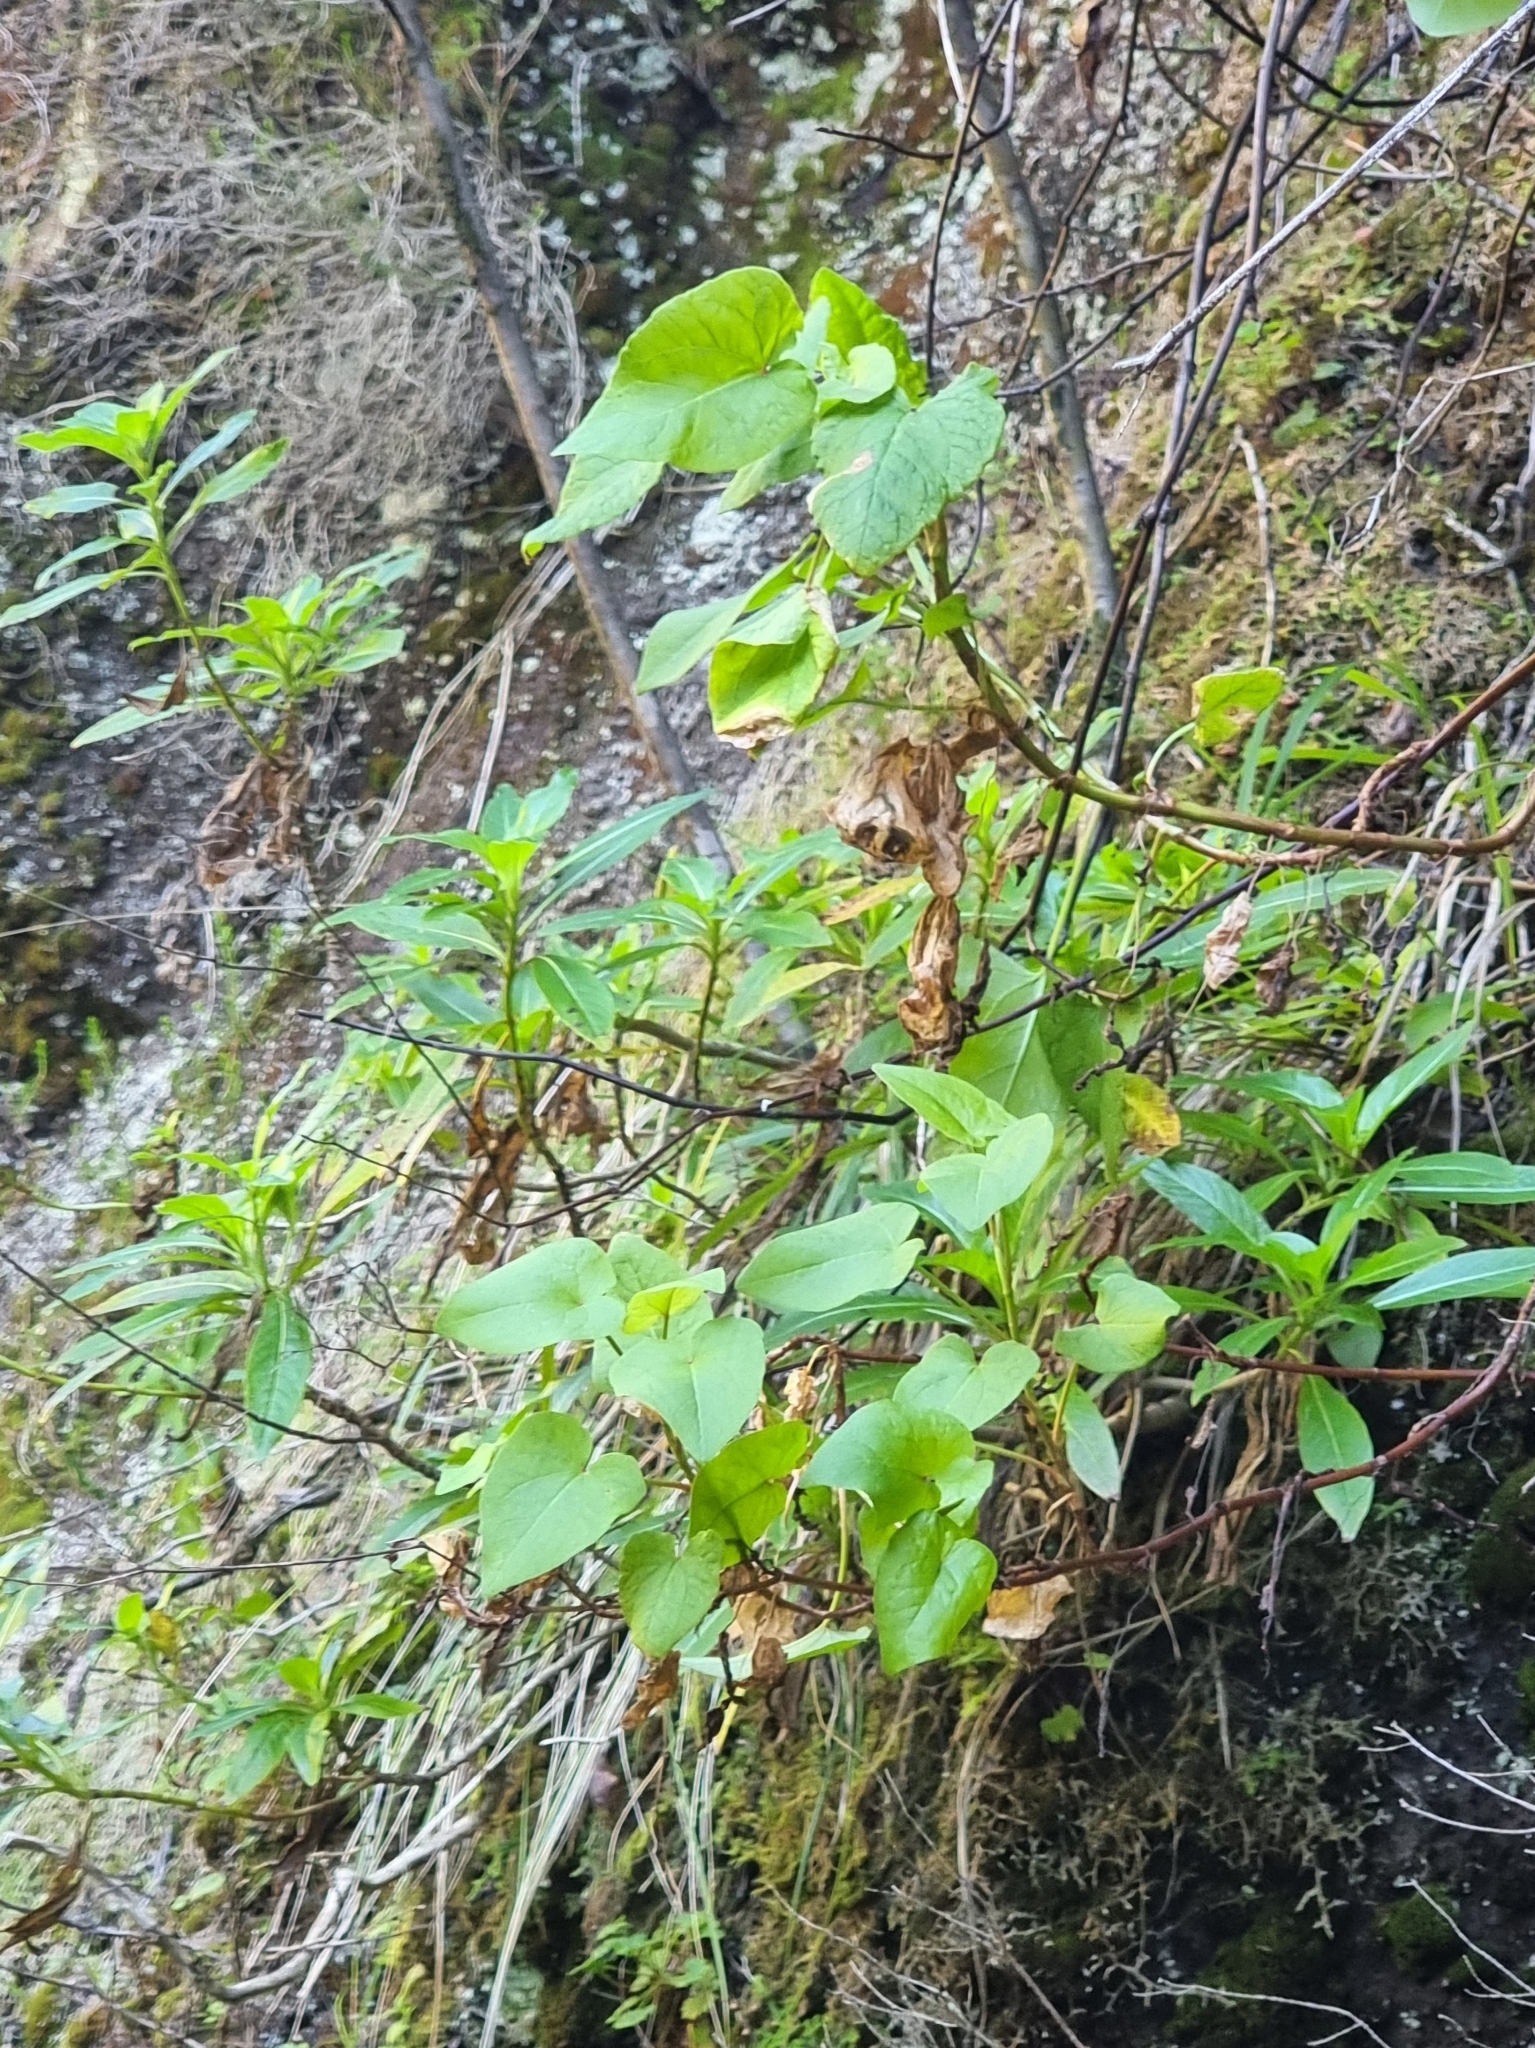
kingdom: Plantae
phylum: Tracheophyta
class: Magnoliopsida
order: Caryophyllales
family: Polygonaceae
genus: Rumex
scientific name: Rumex maderensis
